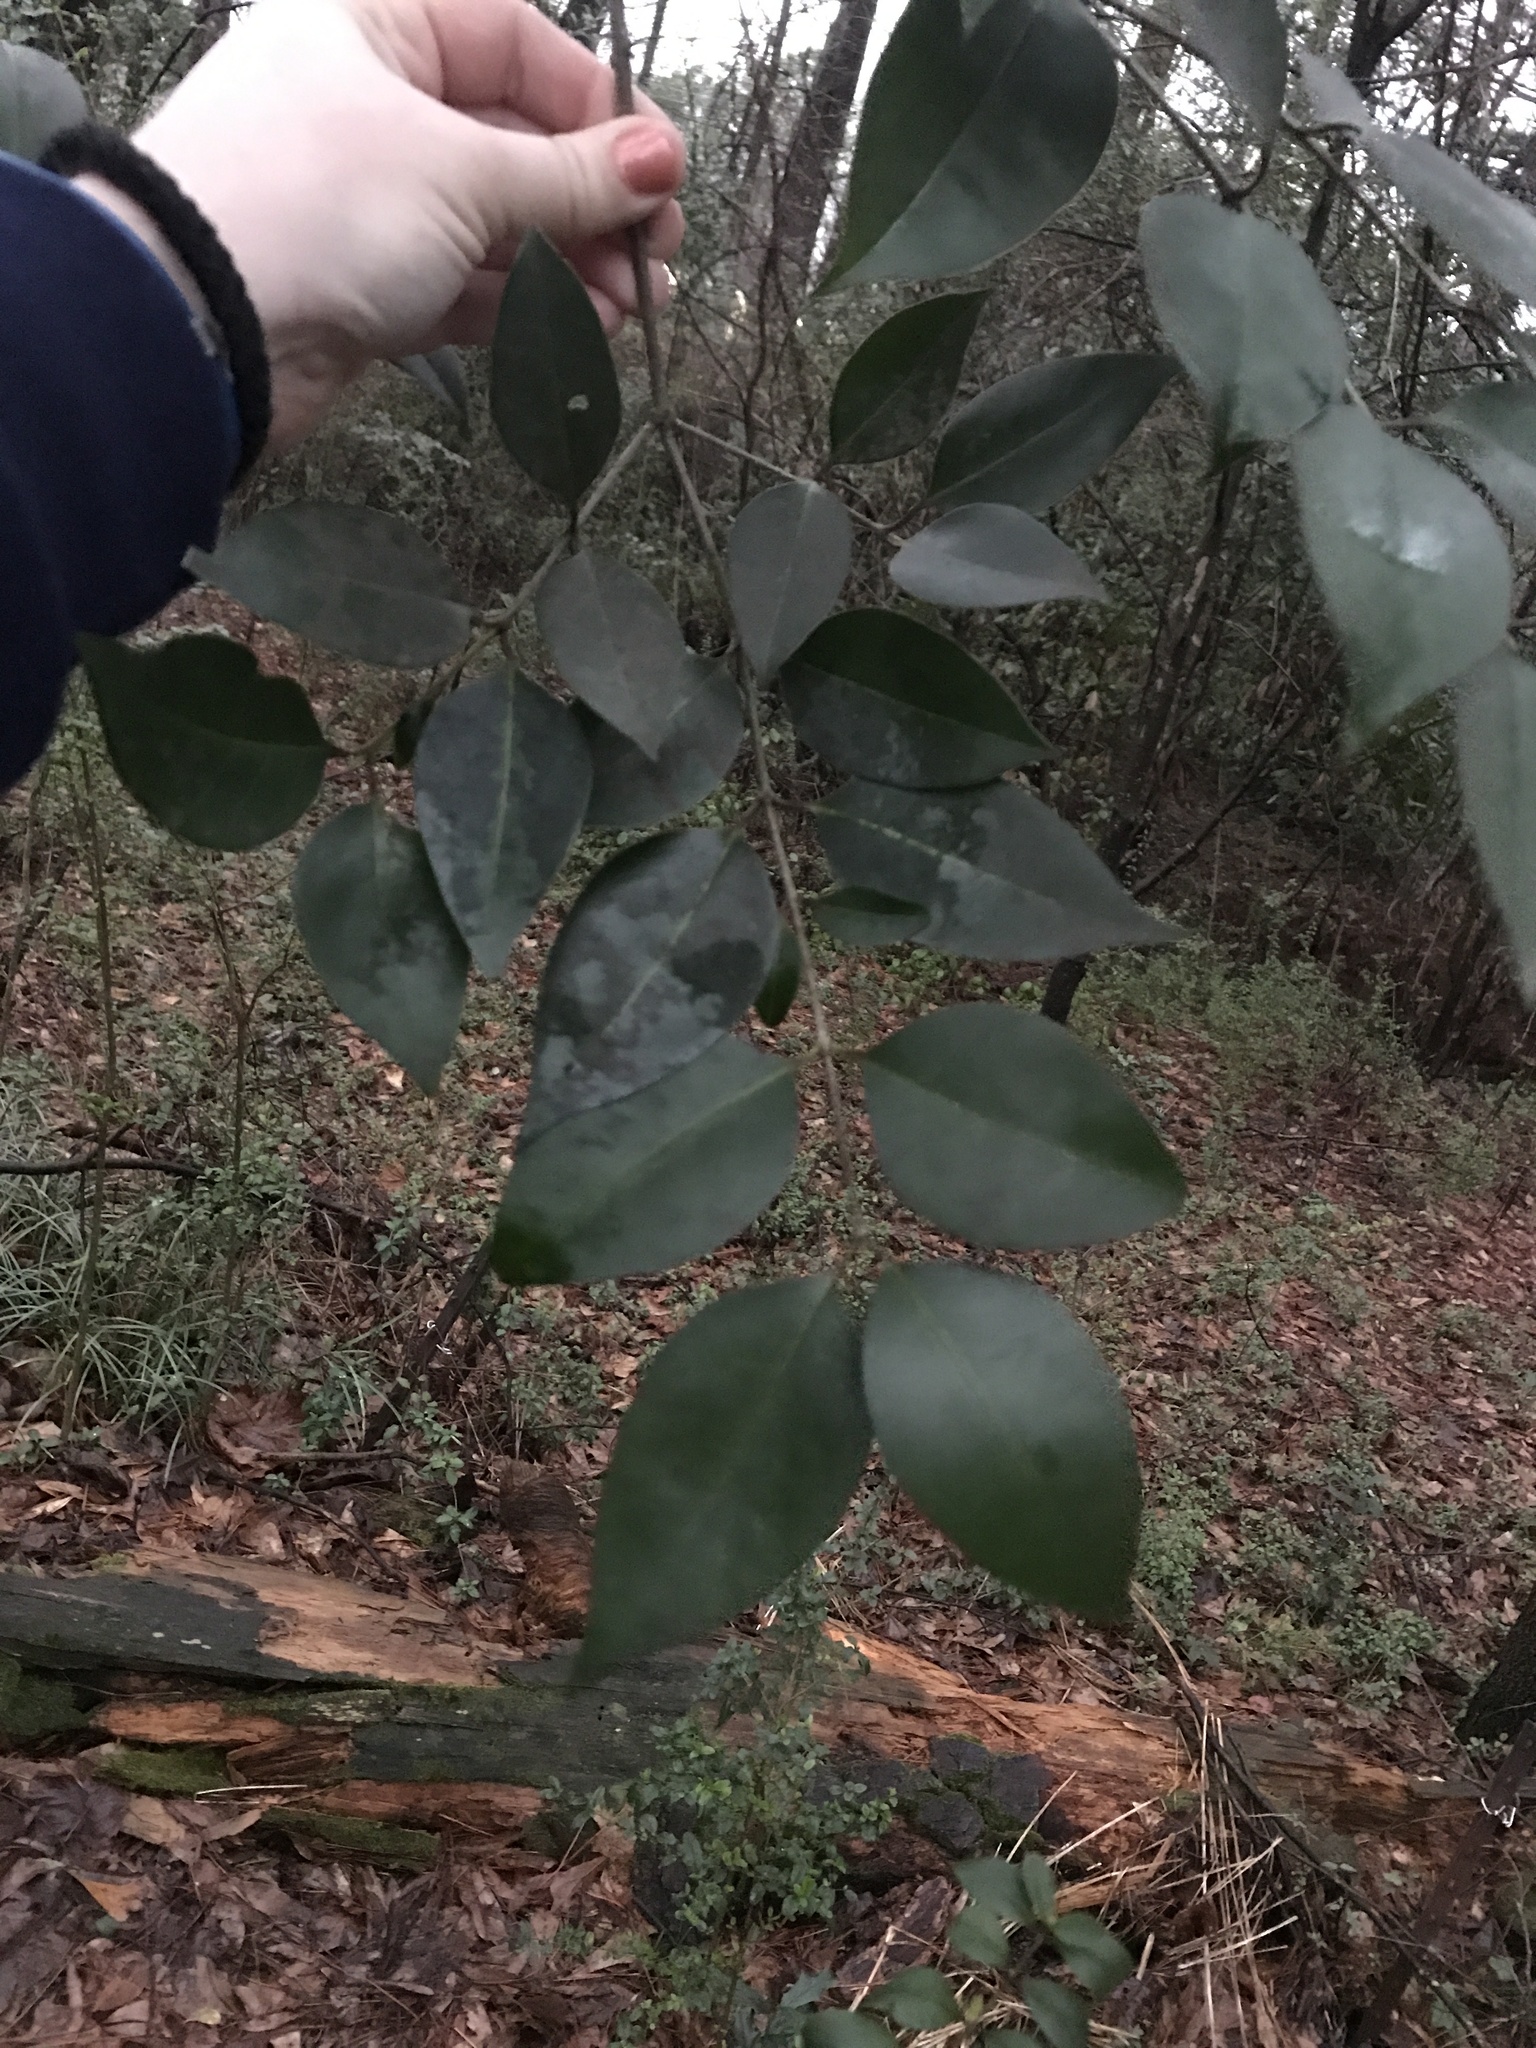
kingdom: Plantae
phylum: Tracheophyta
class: Magnoliopsida
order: Lamiales
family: Oleaceae
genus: Ligustrum
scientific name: Ligustrum lucidum
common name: Glossy privet
